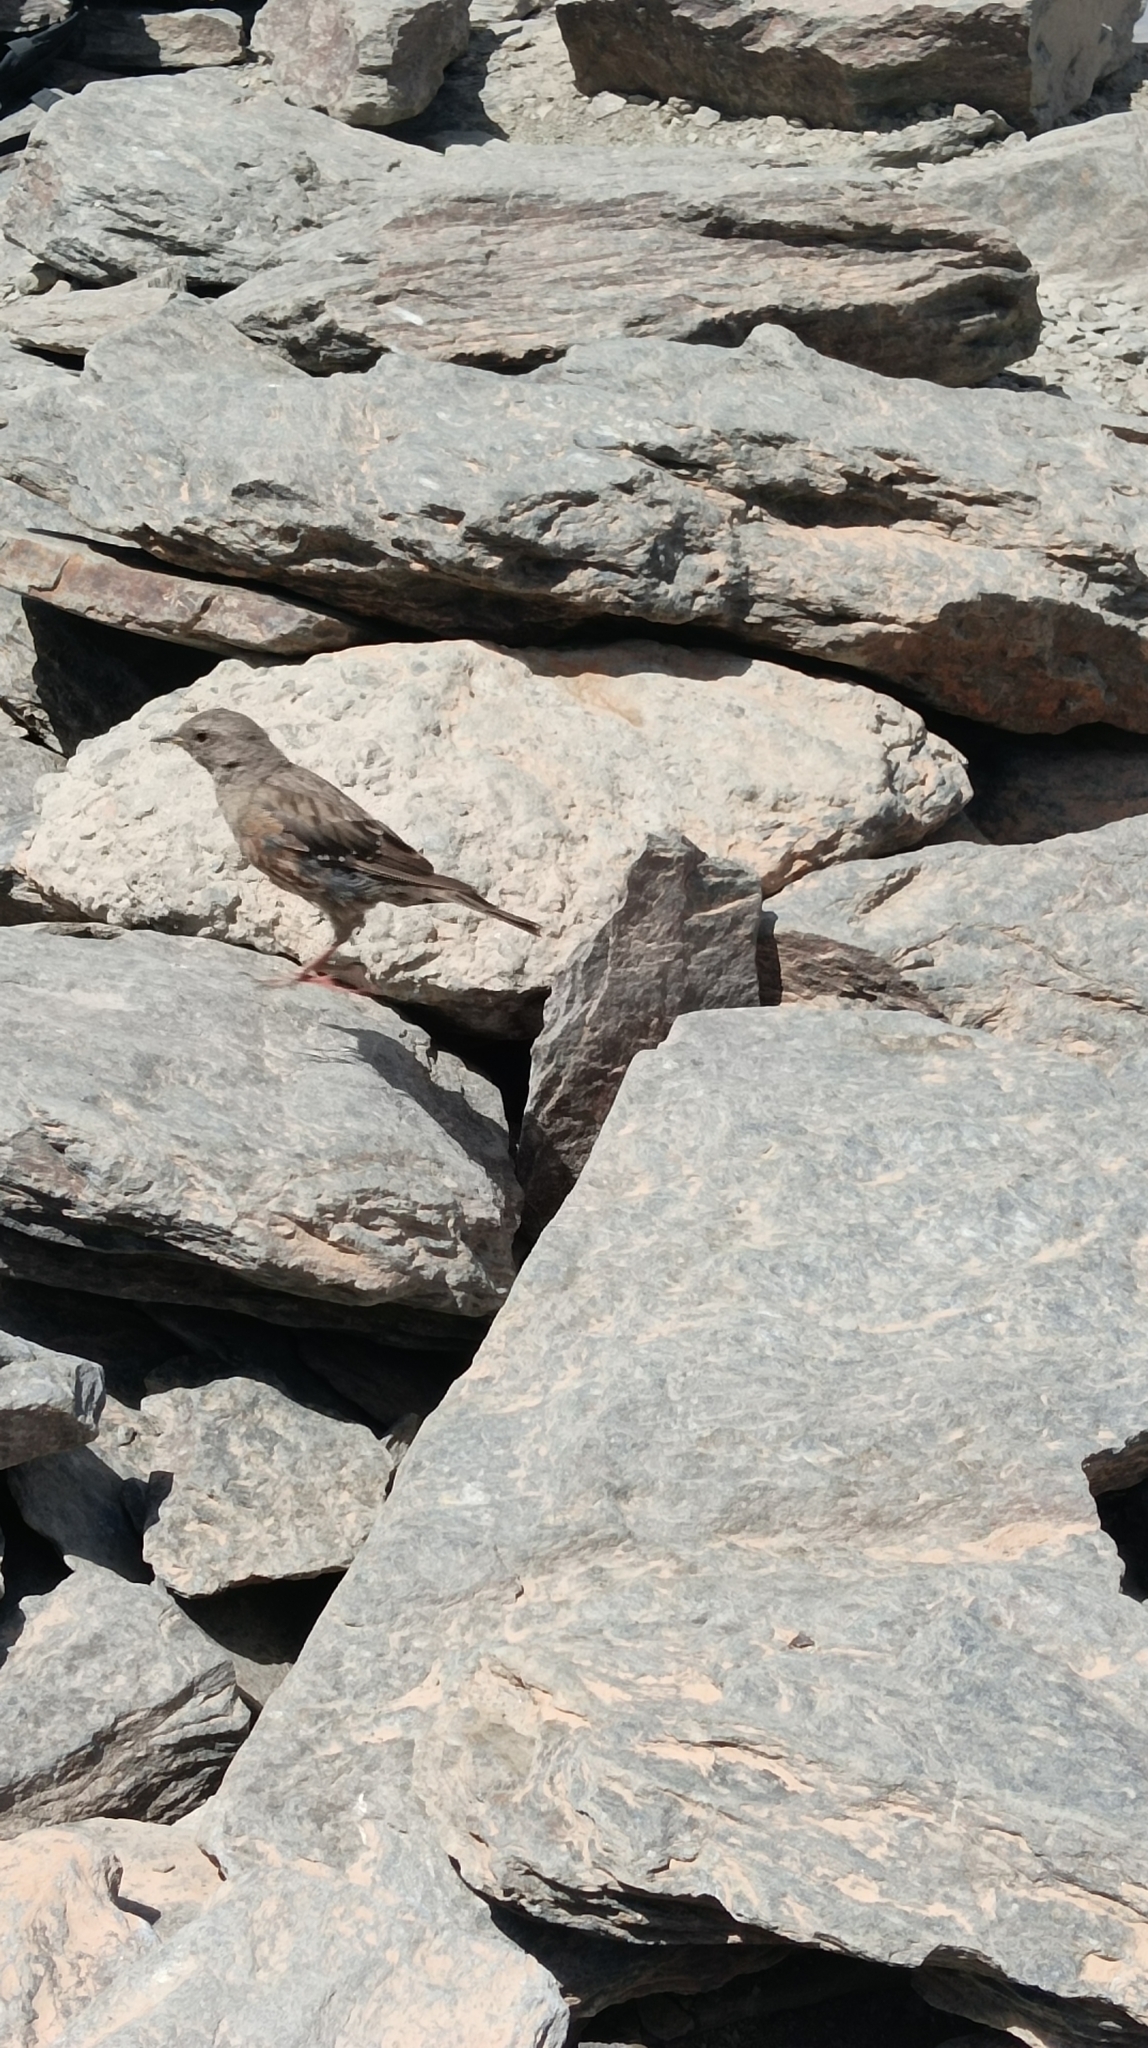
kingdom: Animalia
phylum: Chordata
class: Aves
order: Passeriformes
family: Prunellidae
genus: Prunella
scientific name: Prunella collaris
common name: Alpine accentor
